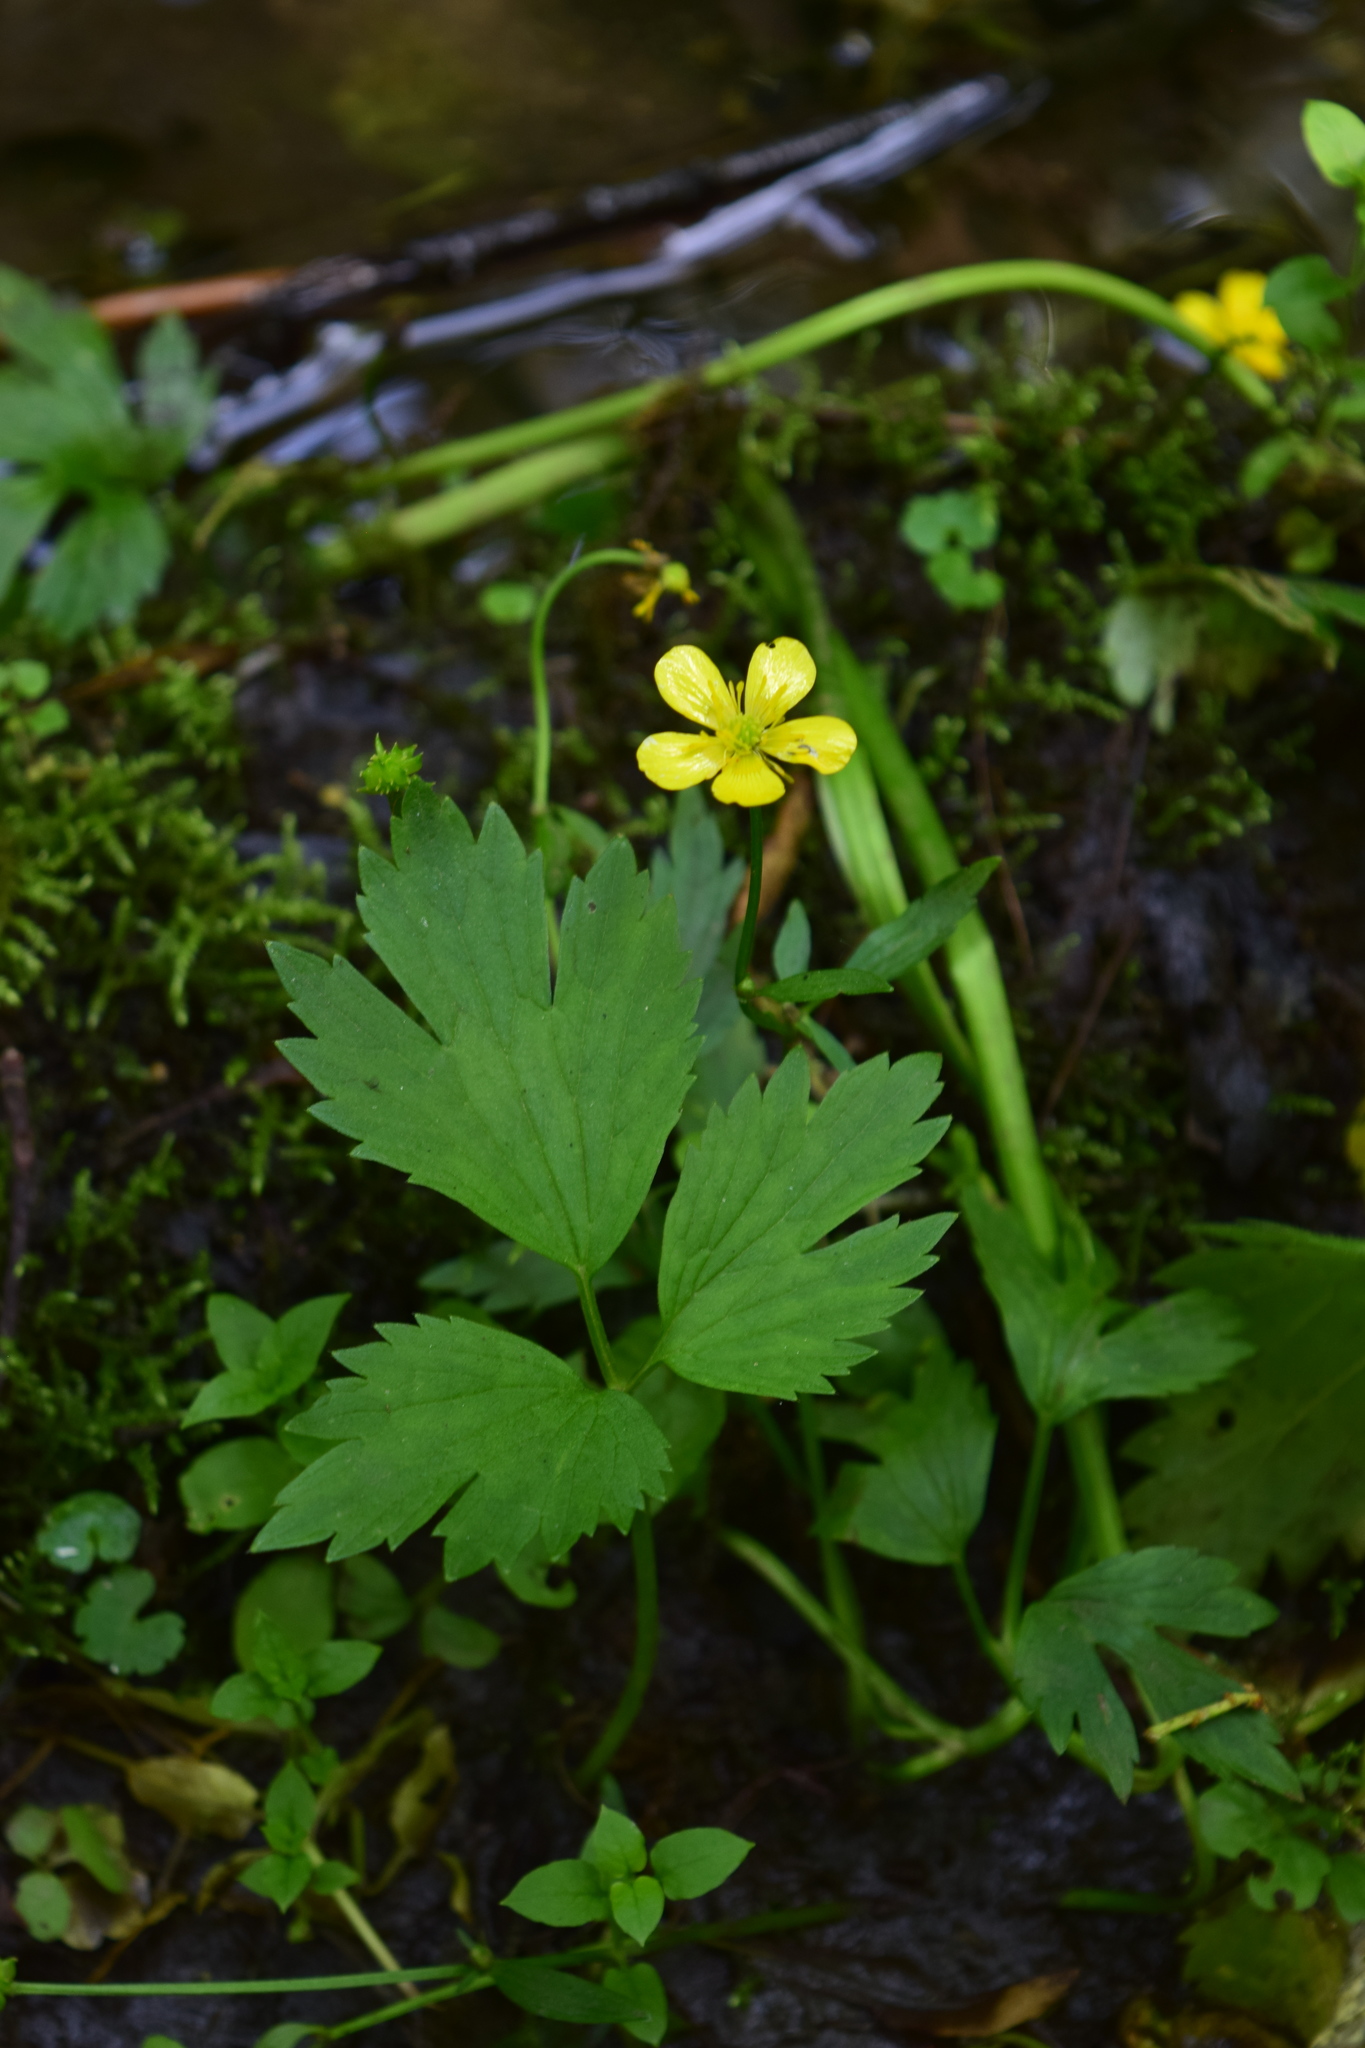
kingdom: Plantae
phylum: Tracheophyta
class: Magnoliopsida
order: Ranunculales
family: Ranunculaceae
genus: Ranunculus
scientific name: Ranunculus repens
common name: Creeping buttercup
